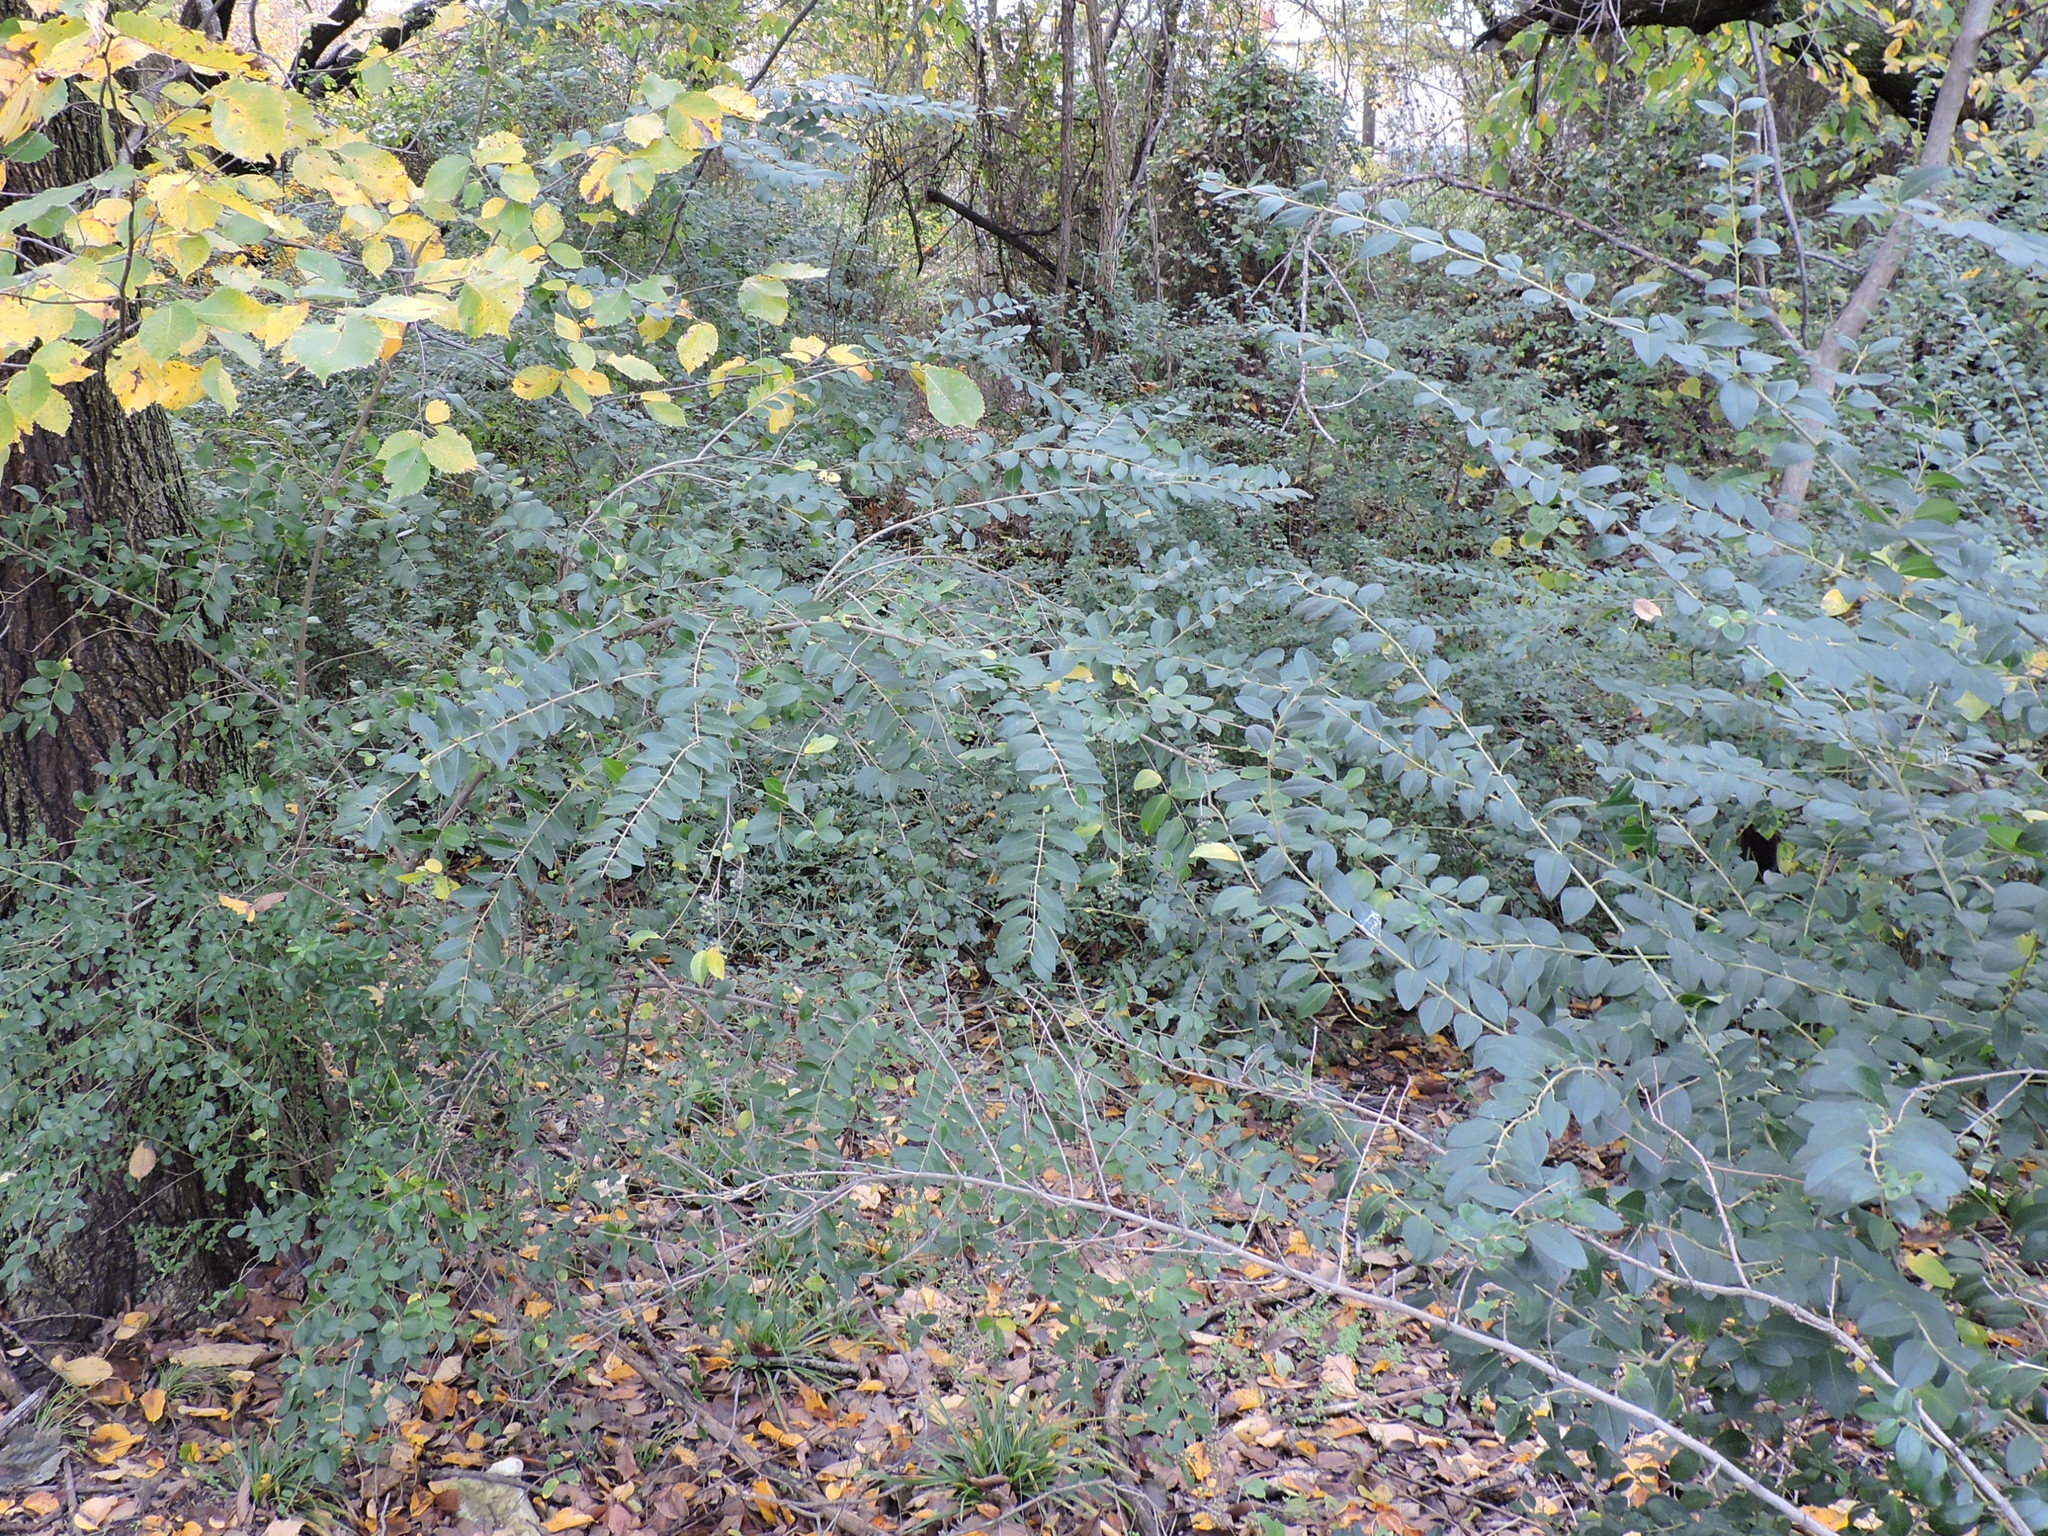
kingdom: Plantae
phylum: Tracheophyta
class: Magnoliopsida
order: Lamiales
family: Oleaceae
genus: Ligustrum
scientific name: Ligustrum sinense
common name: Chinese privet
